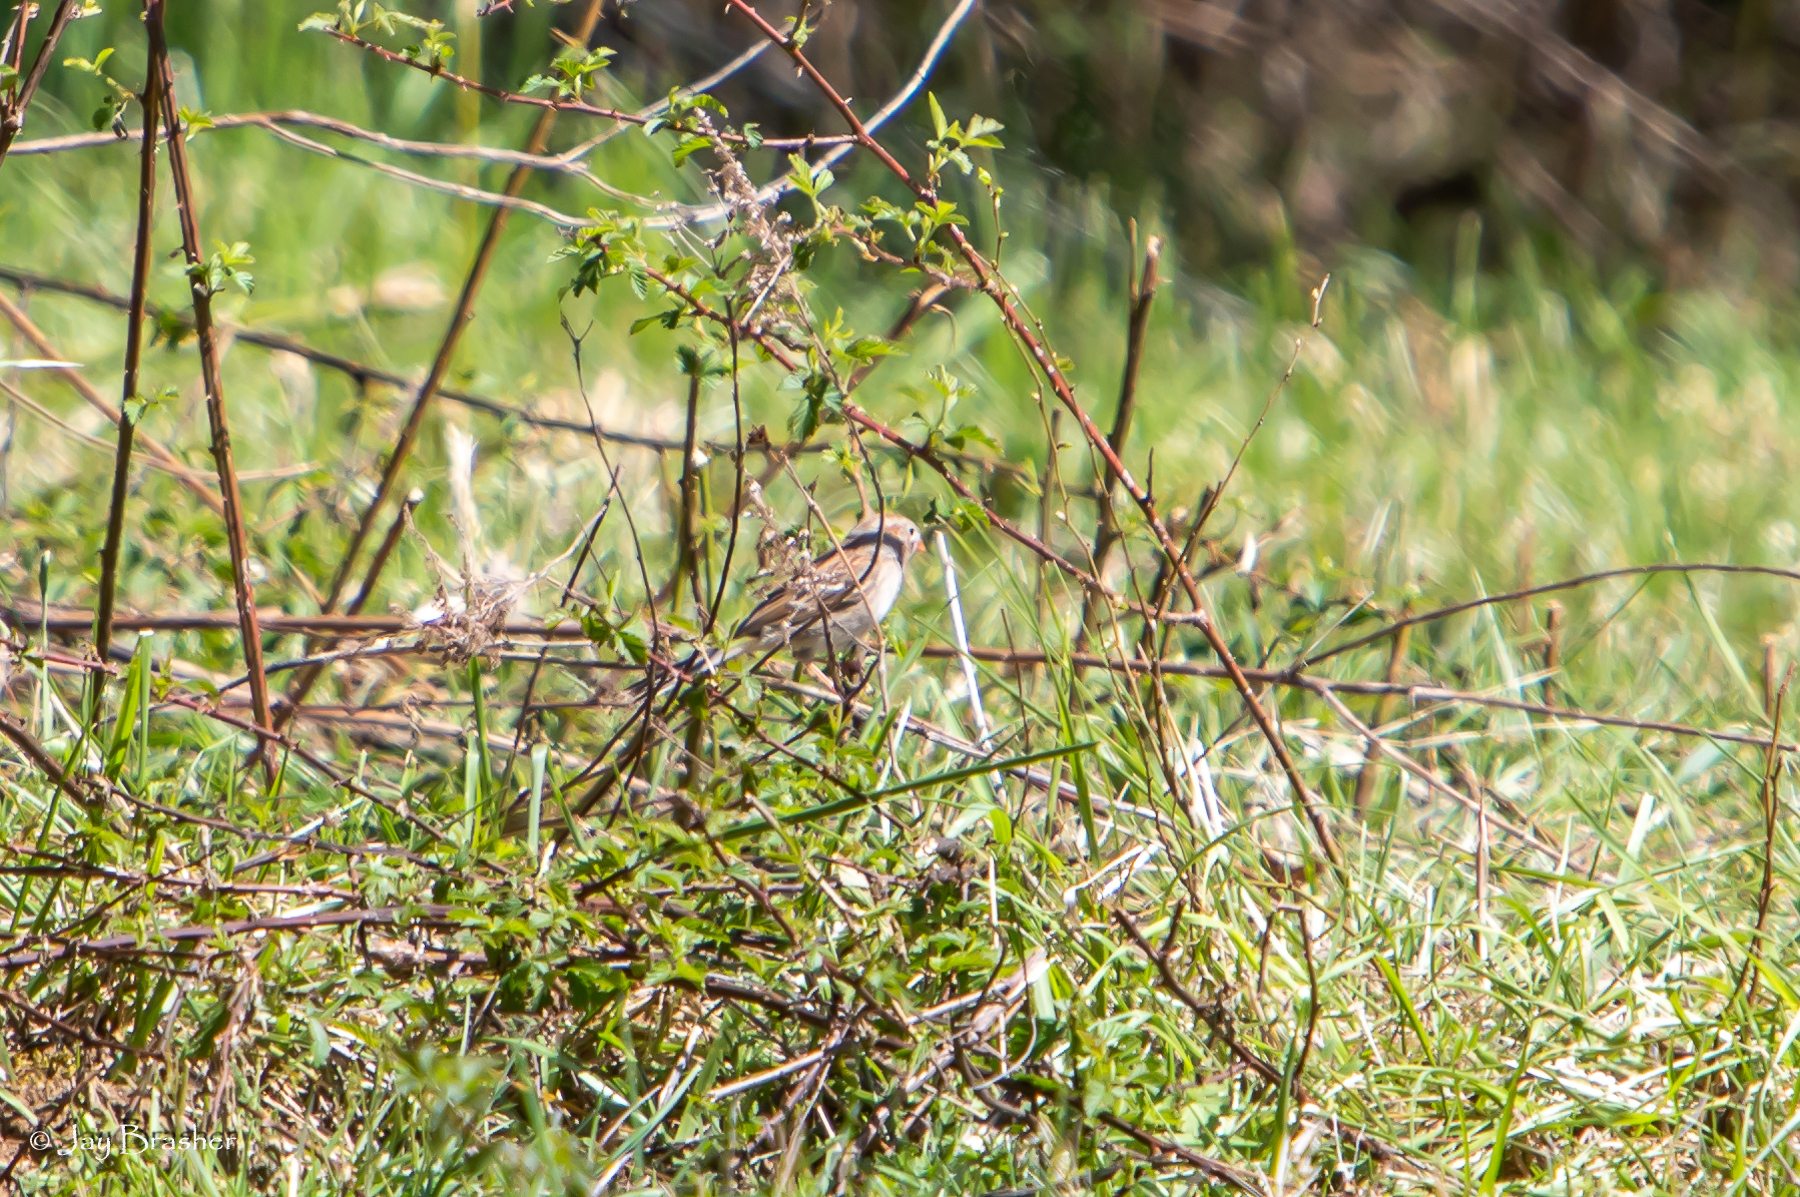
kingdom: Animalia
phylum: Chordata
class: Aves
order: Passeriformes
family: Passerellidae
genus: Spizella
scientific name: Spizella pusilla
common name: Field sparrow
